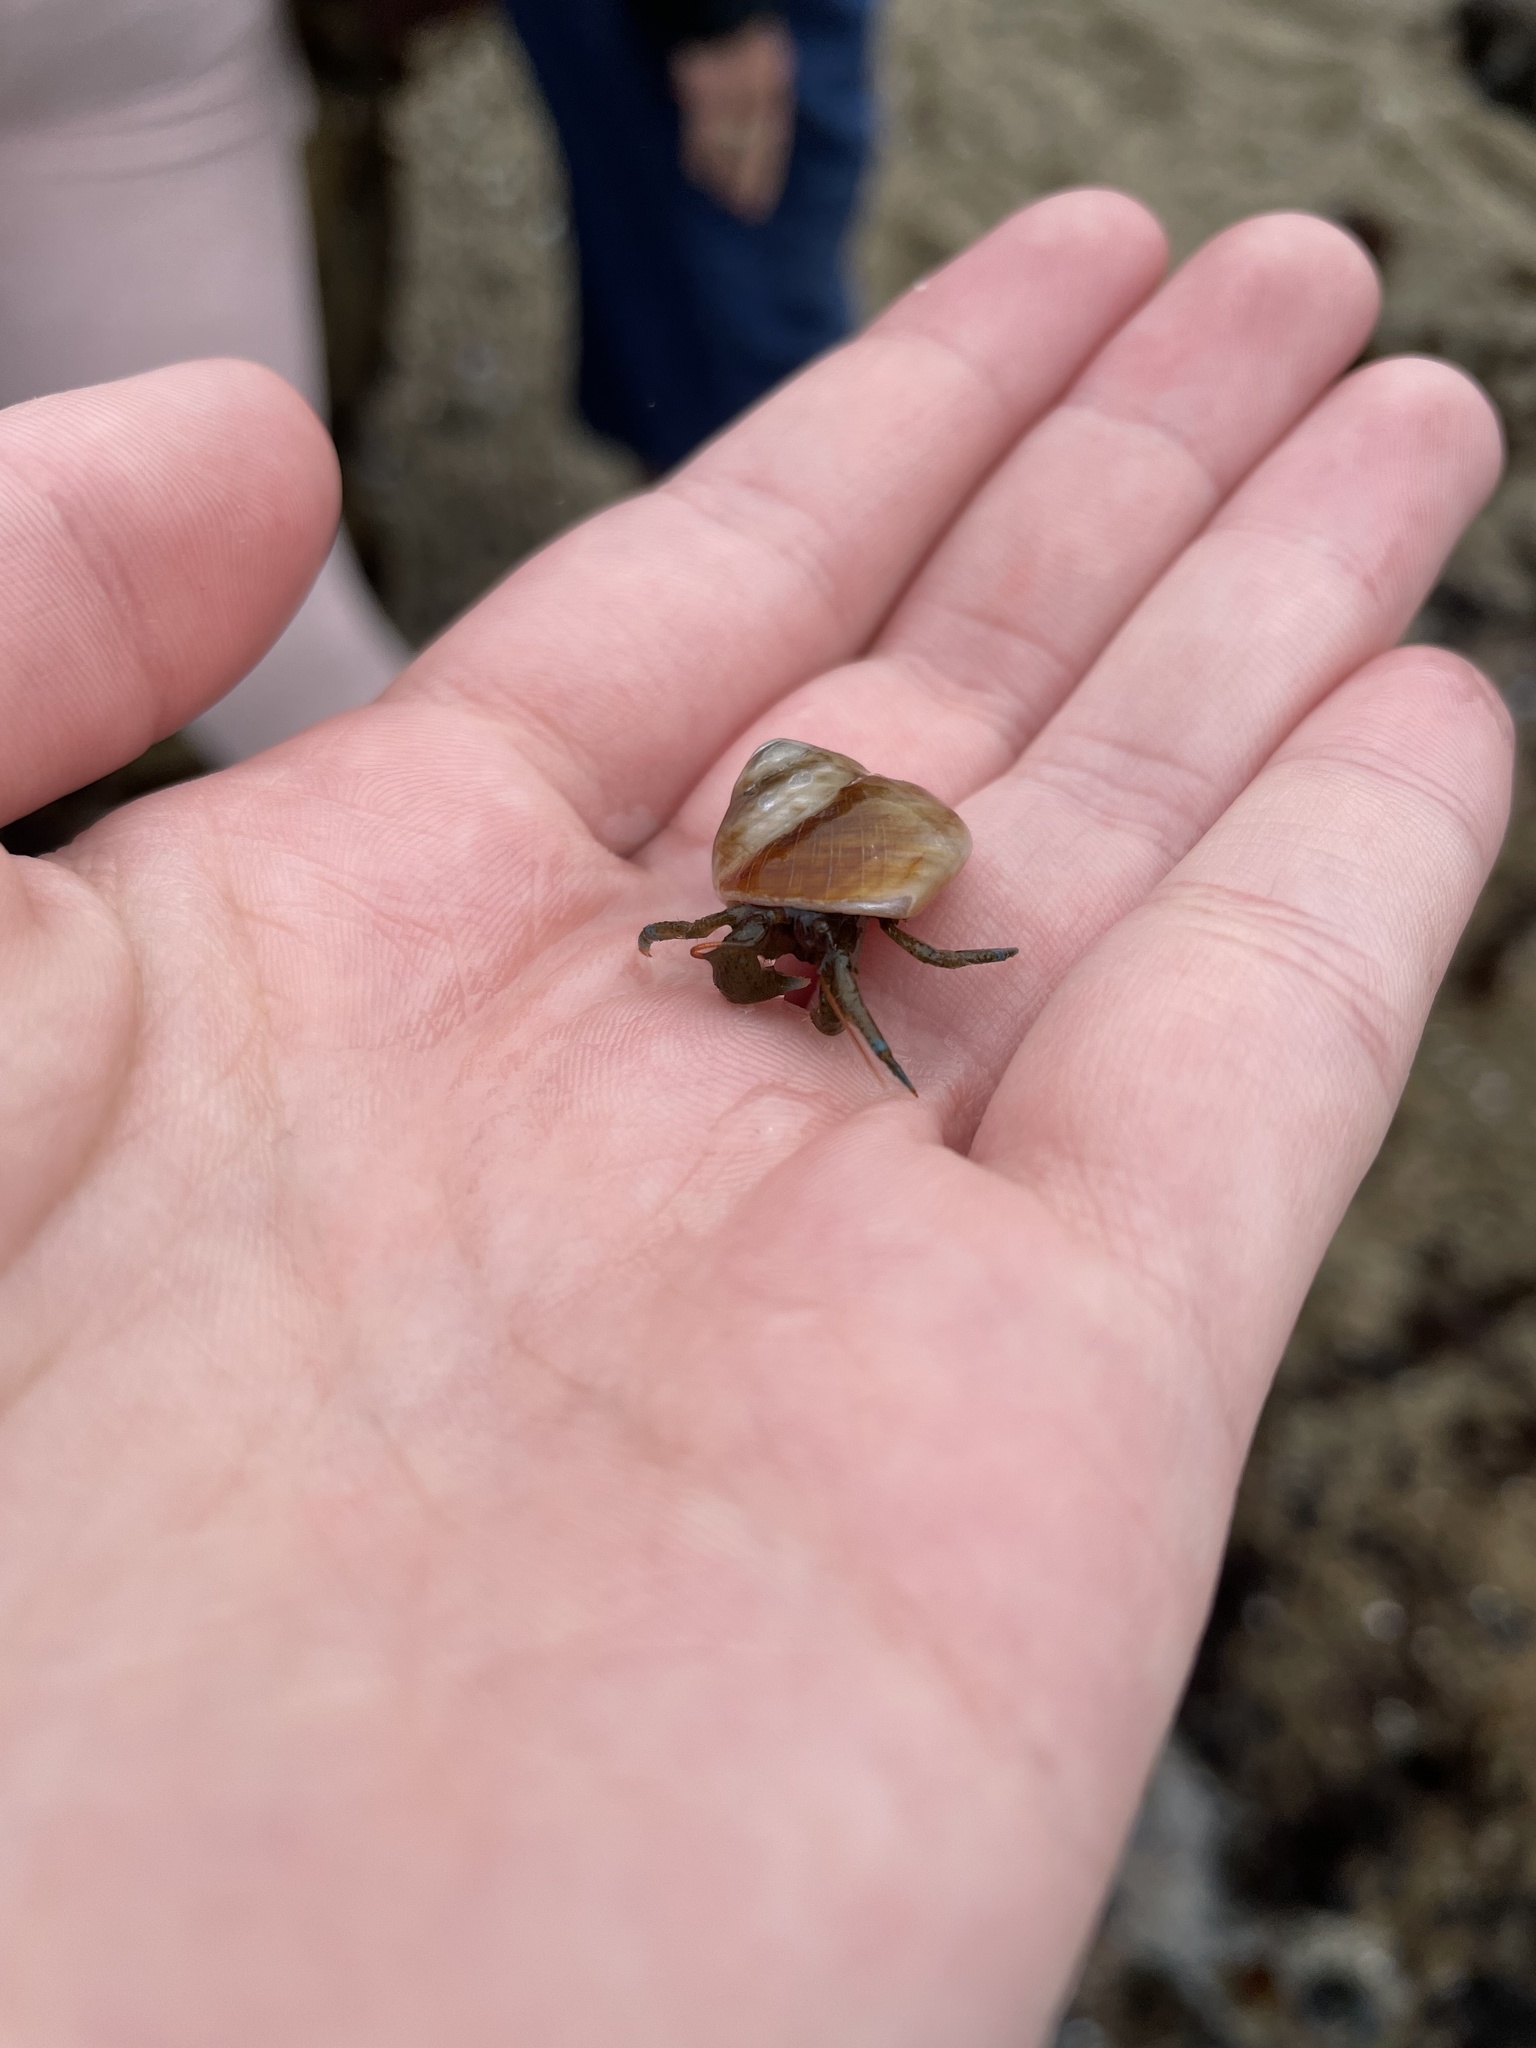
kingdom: Animalia
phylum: Arthropoda
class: Malacostraca
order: Decapoda
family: Paguridae
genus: Pagurus
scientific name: Pagurus samuelis
